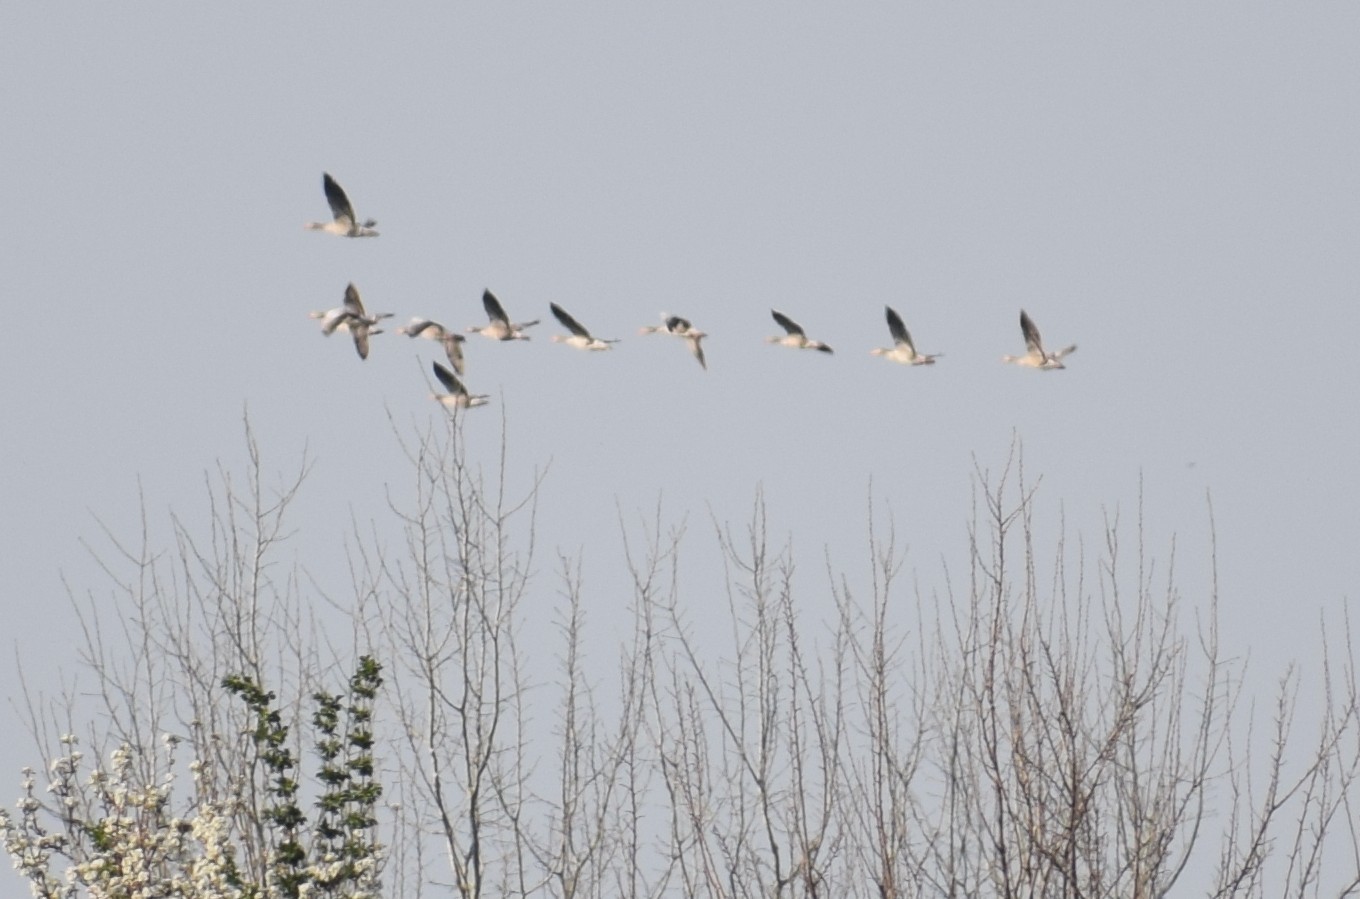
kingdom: Animalia
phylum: Chordata
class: Aves
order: Anseriformes
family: Anatidae
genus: Anser
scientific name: Anser anser
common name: Greylag goose
